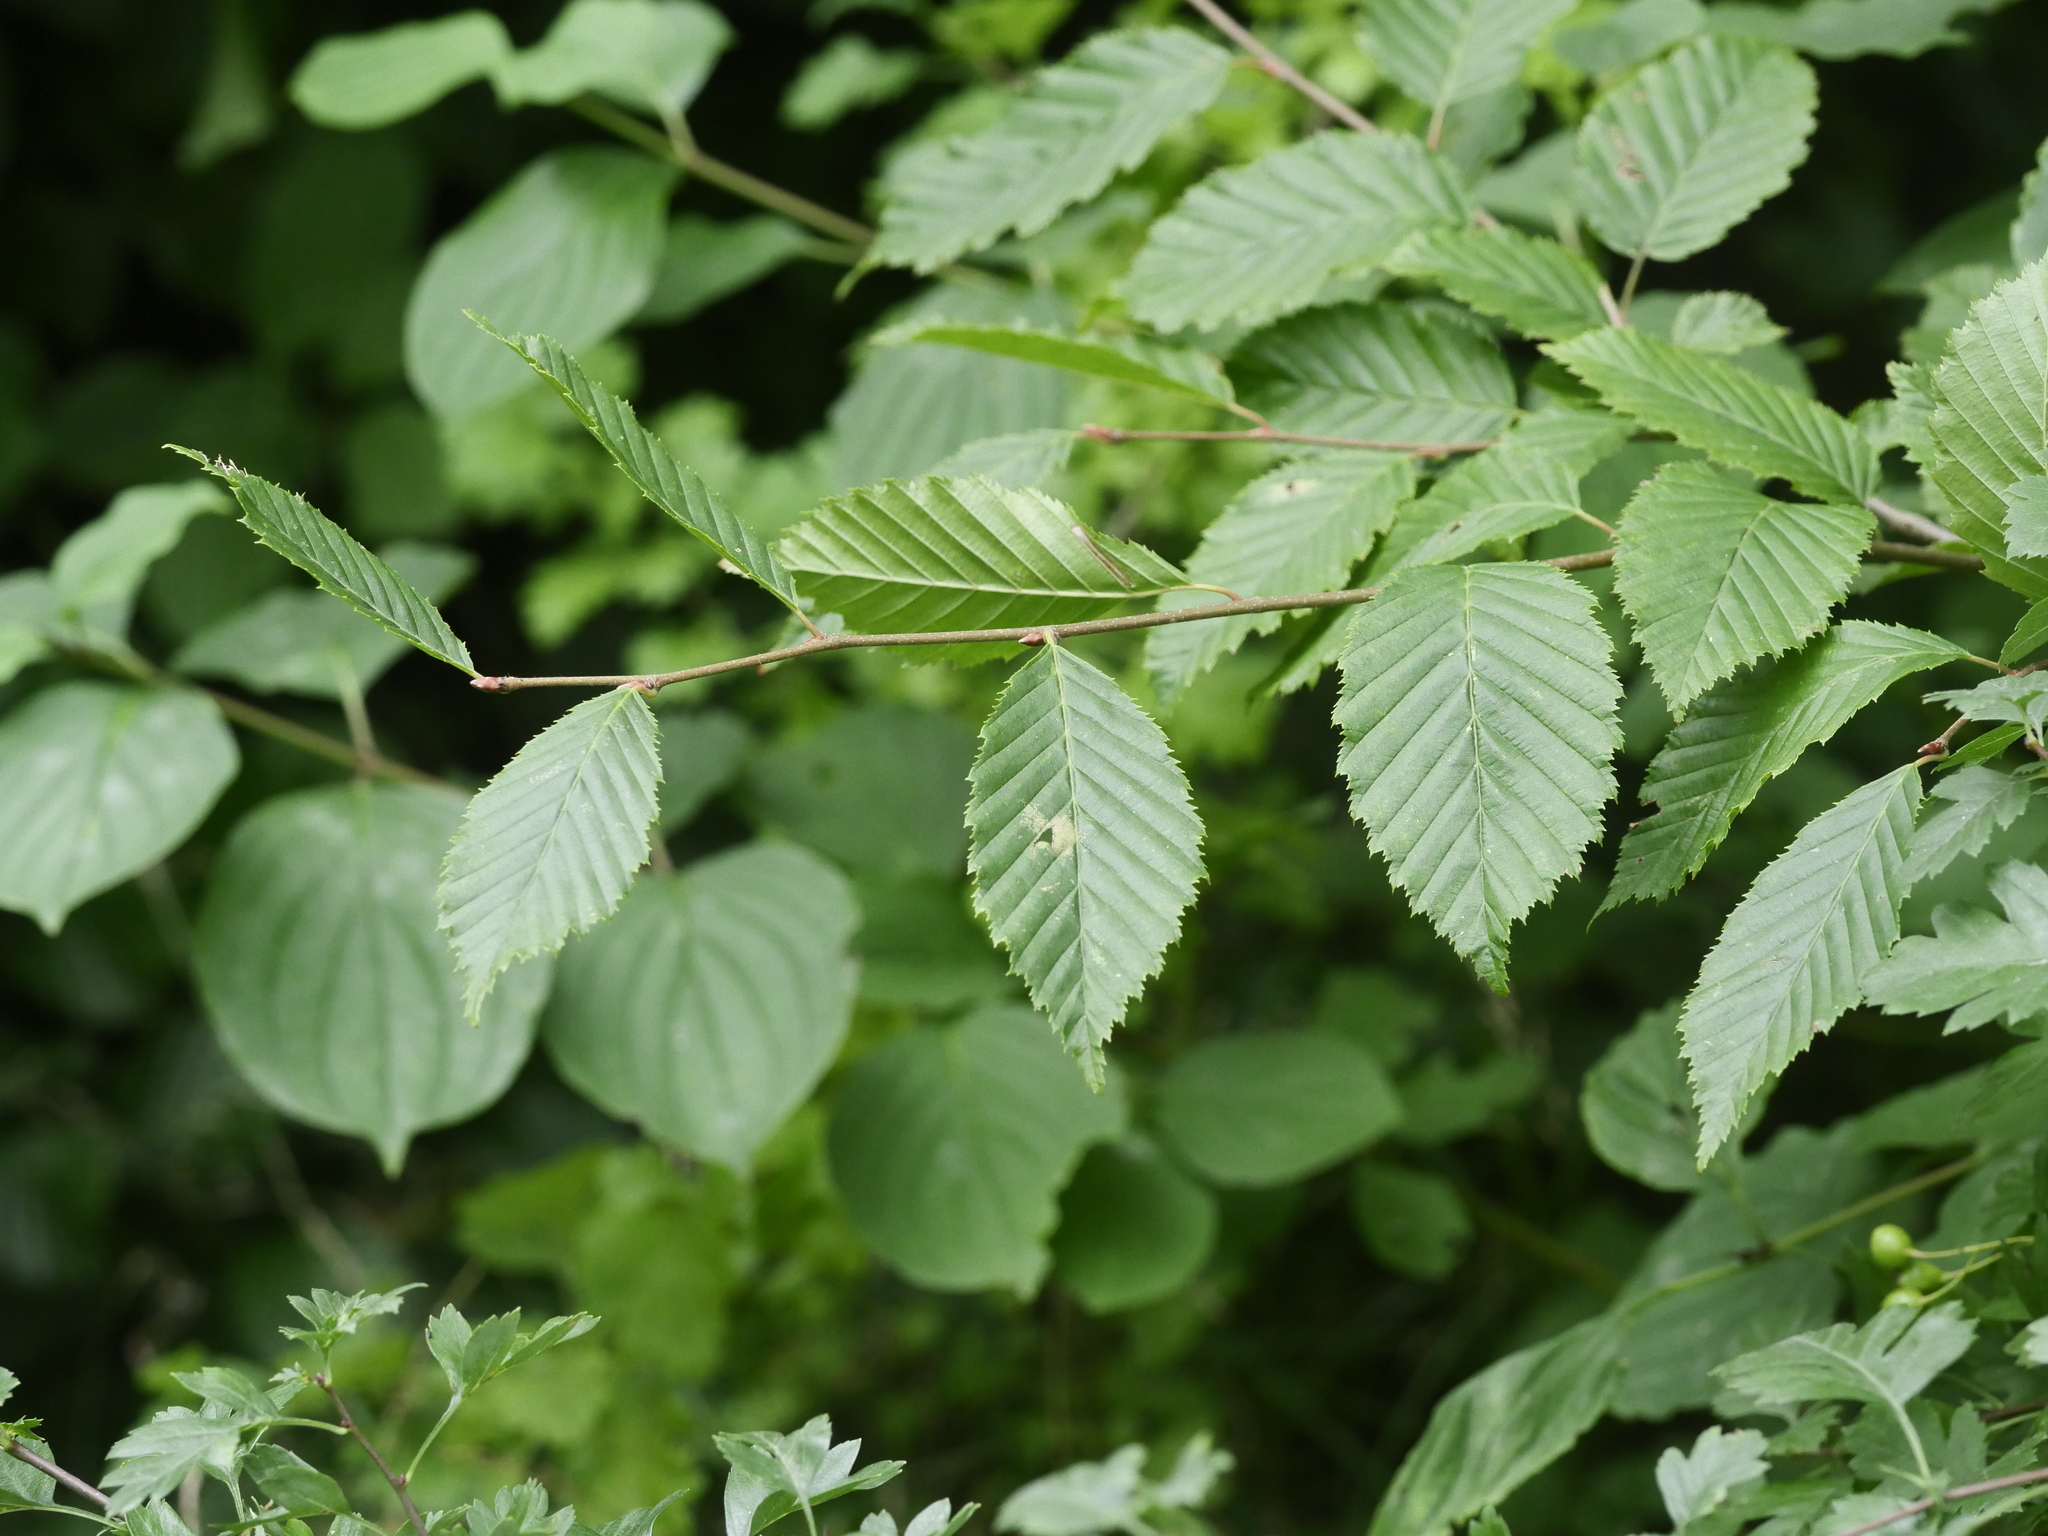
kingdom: Plantae
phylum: Tracheophyta
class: Magnoliopsida
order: Fagales
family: Betulaceae
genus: Carpinus
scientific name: Carpinus betulus
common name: Hornbeam
